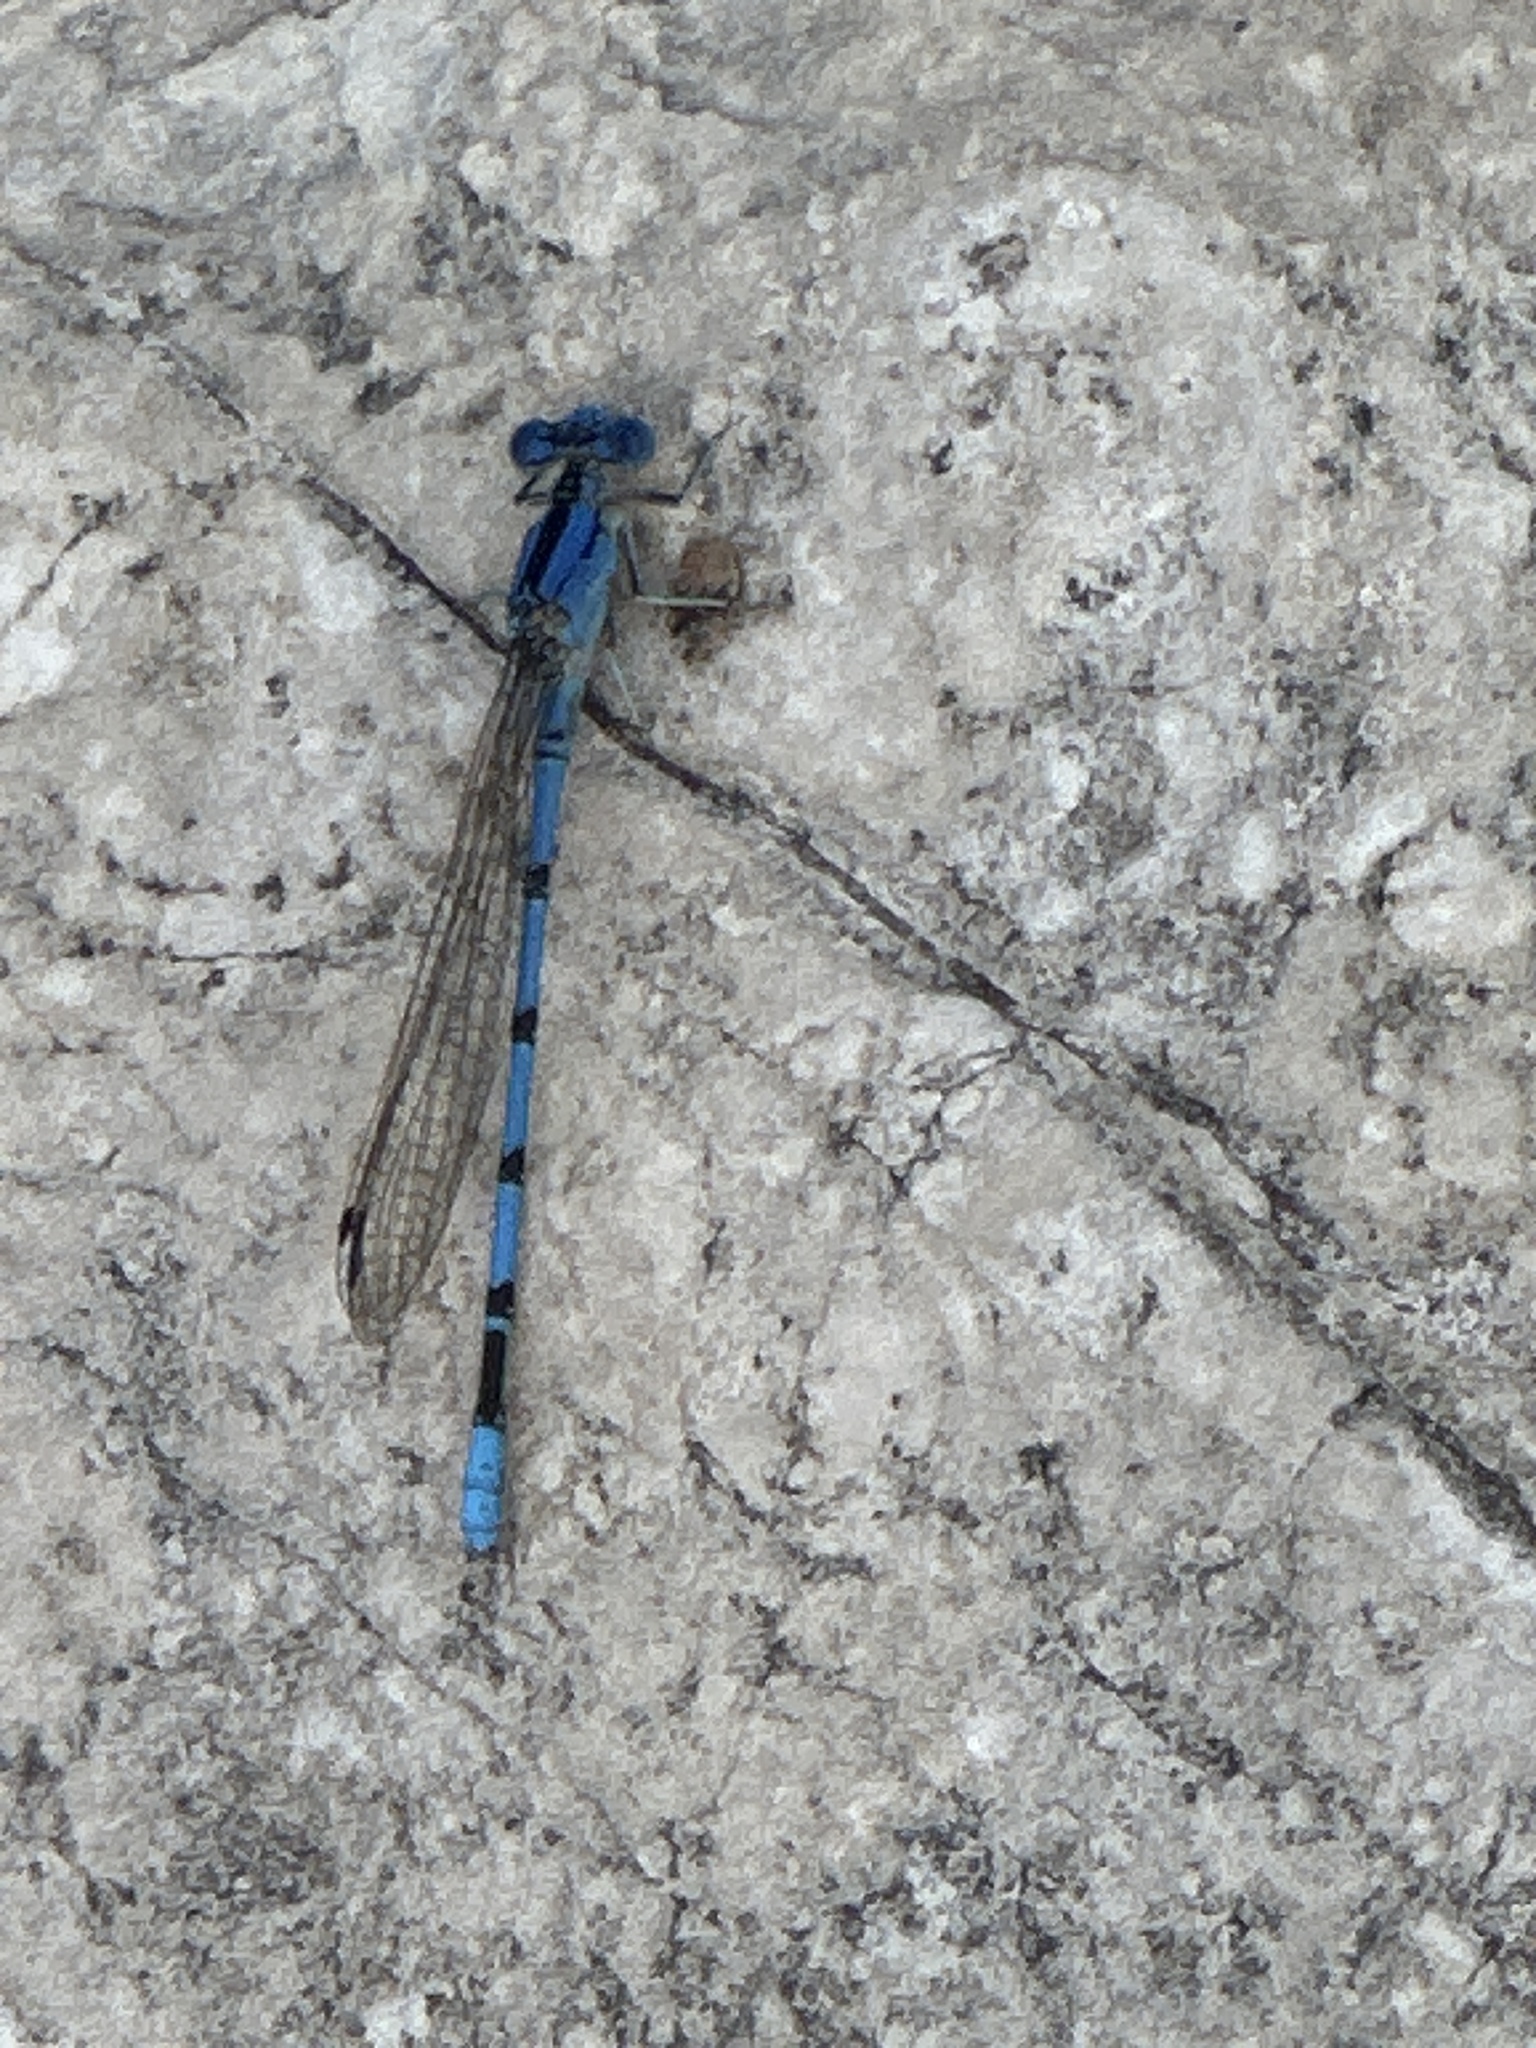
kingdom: Animalia
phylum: Arthropoda
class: Insecta
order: Odonata
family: Coenagrionidae
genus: Argia
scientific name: Argia nahuana
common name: Aztec dancer
